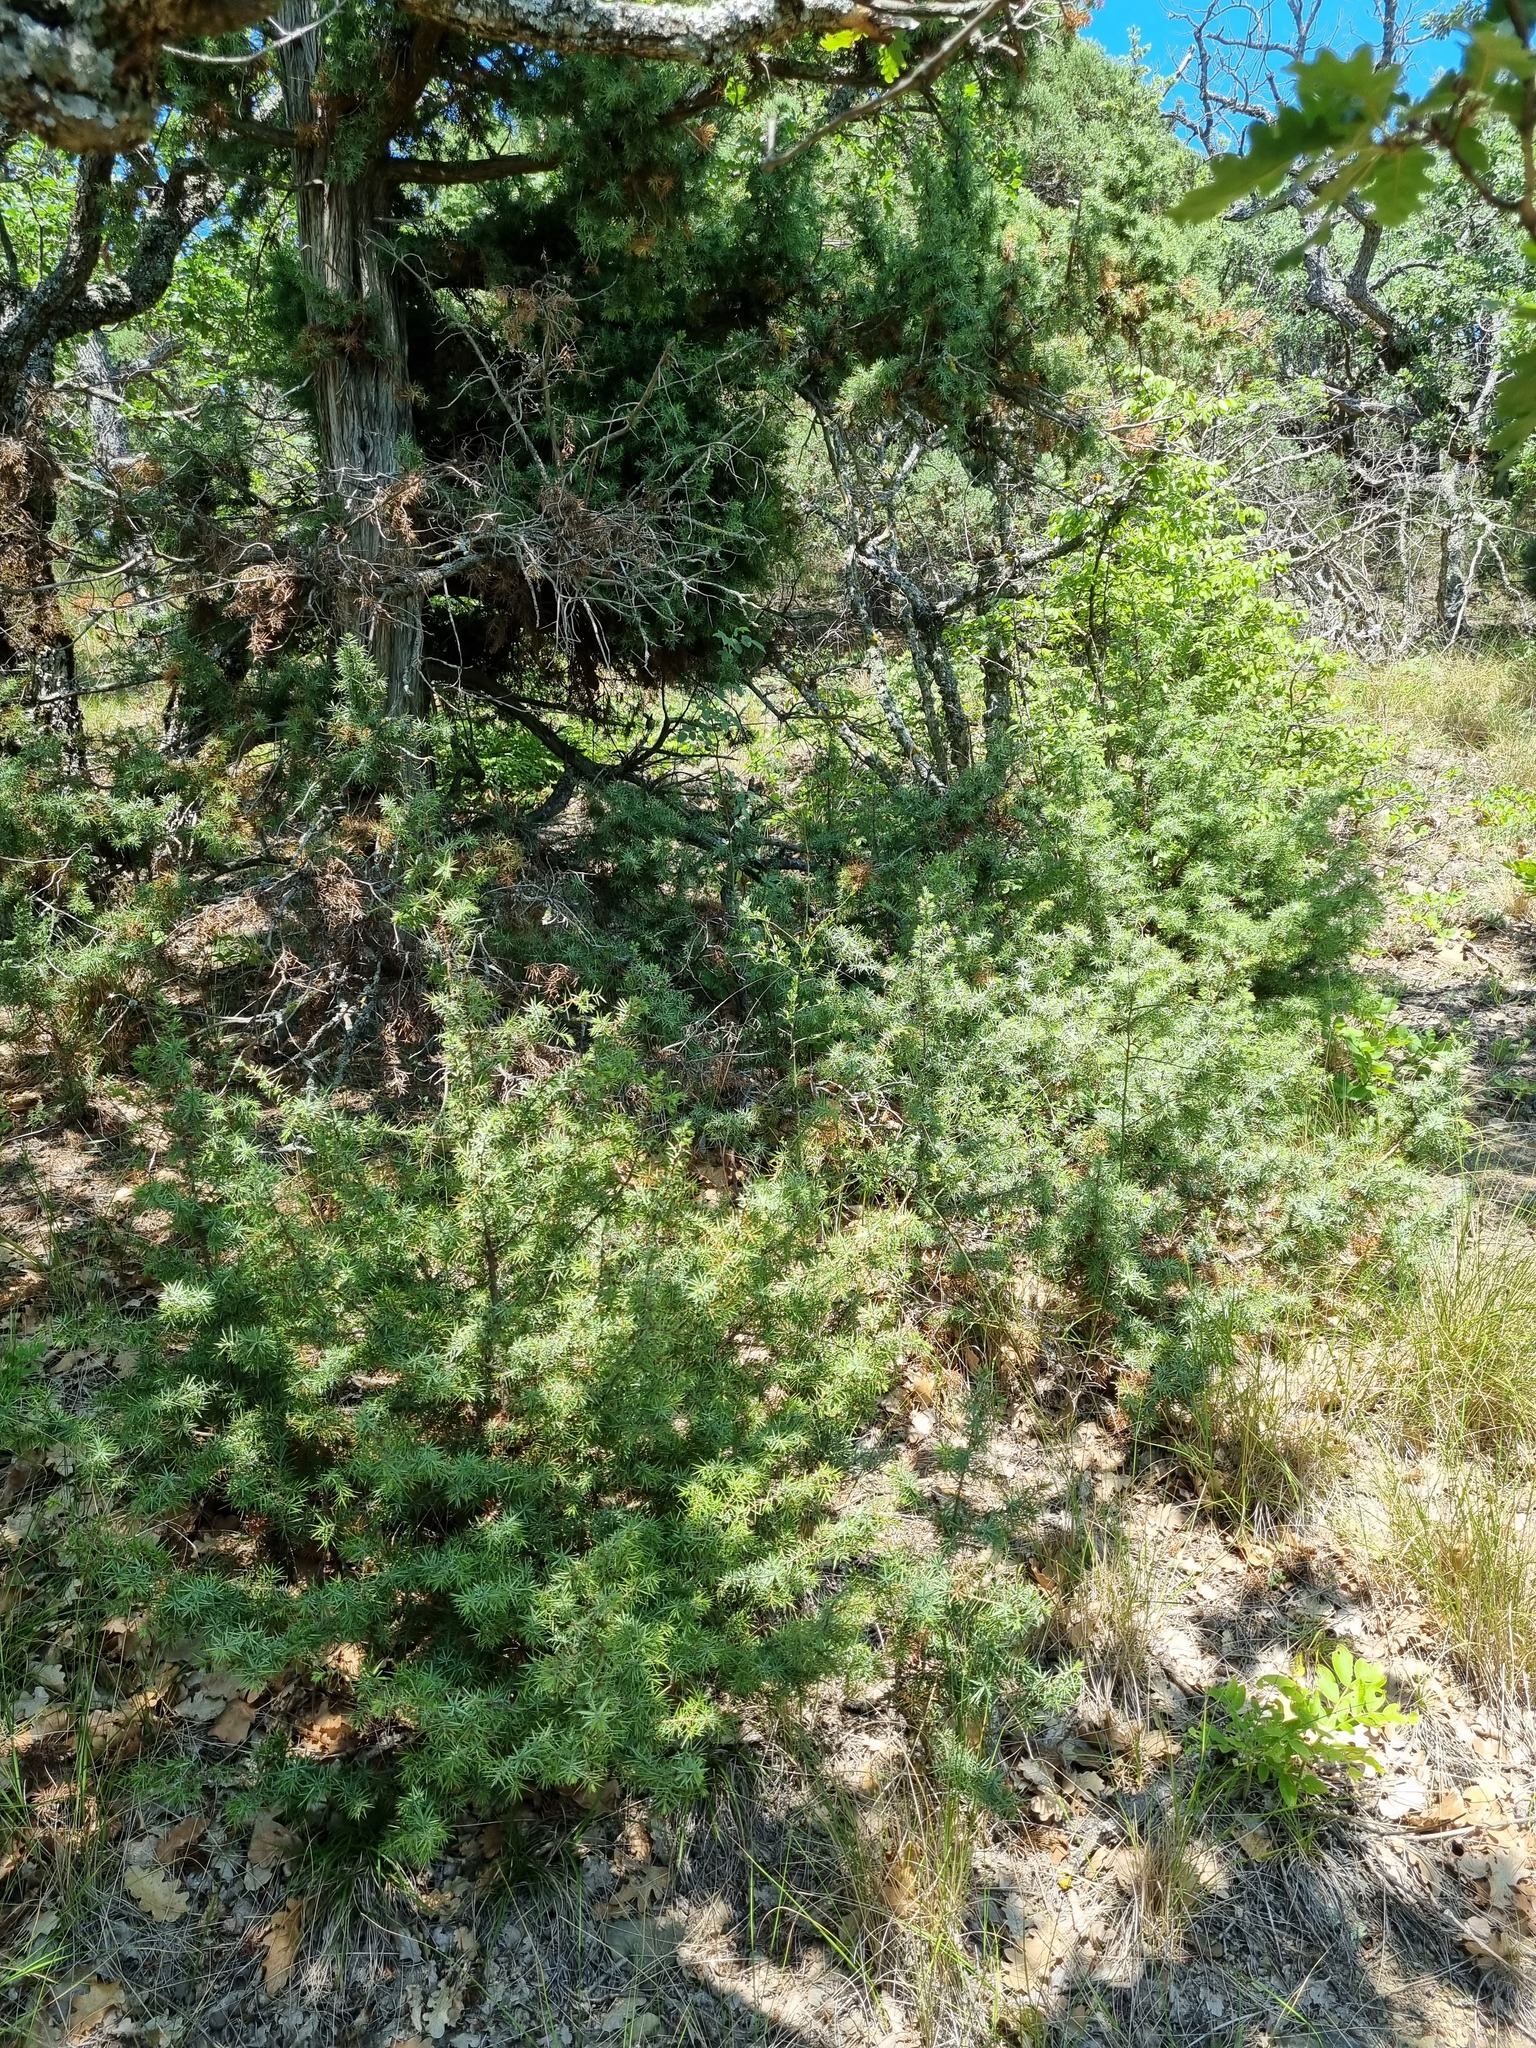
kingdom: Plantae
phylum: Tracheophyta
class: Pinopsida
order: Pinales
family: Cupressaceae
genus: Juniperus
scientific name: Juniperus oxycedrus
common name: Prickly juniper
